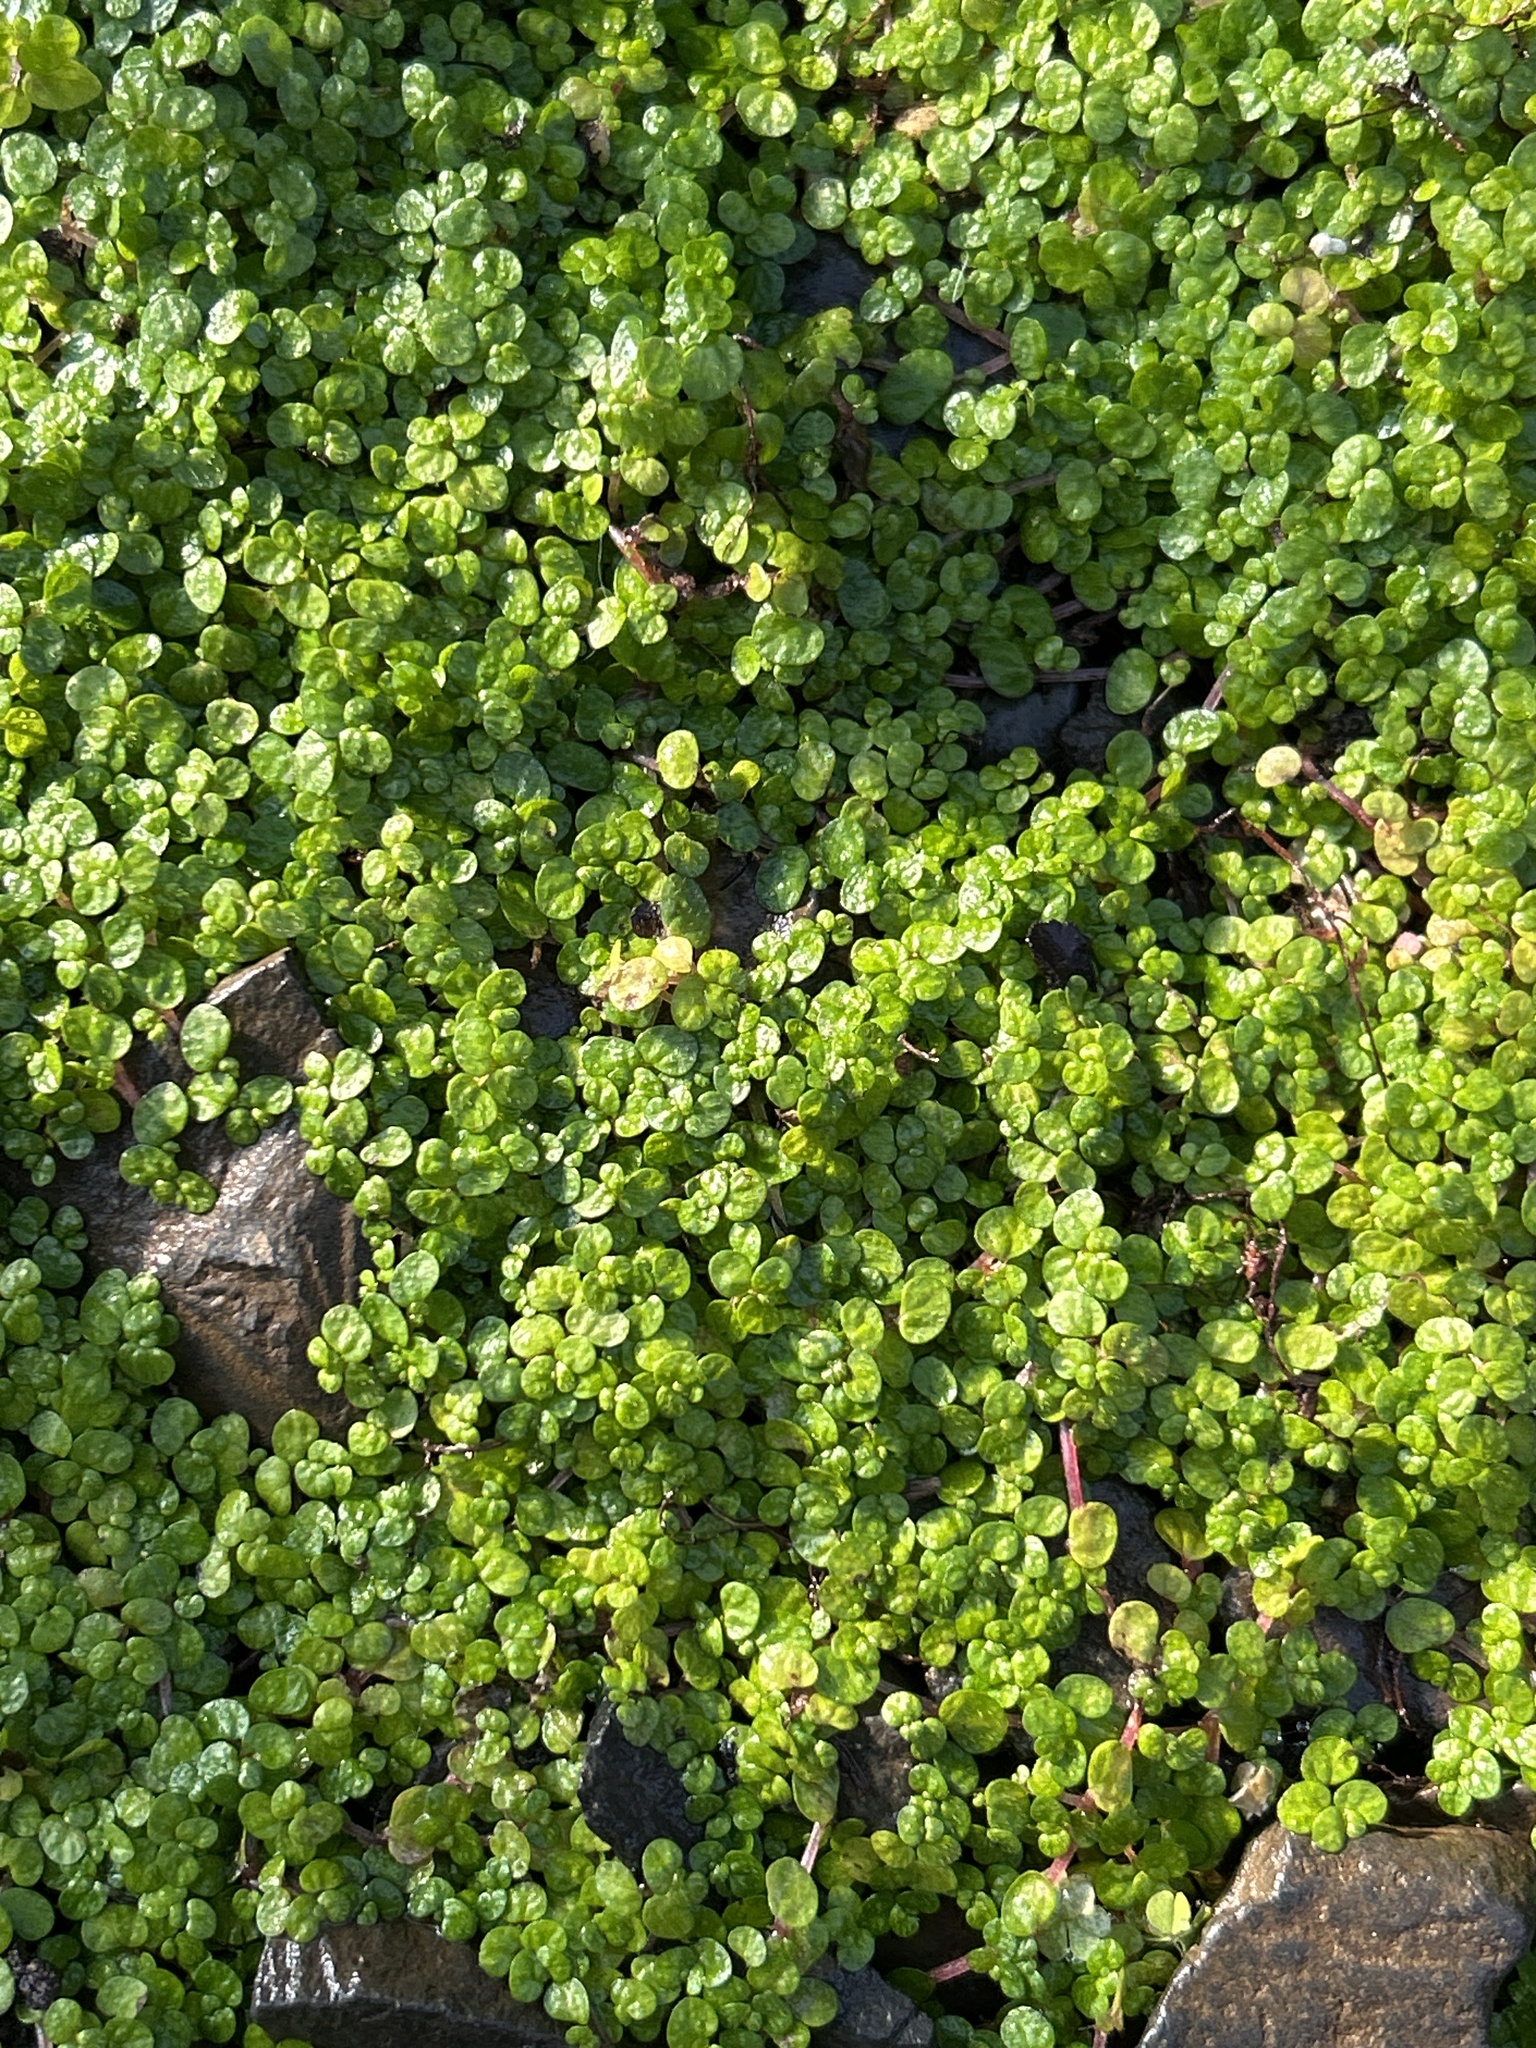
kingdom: Plantae
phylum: Tracheophyta
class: Magnoliopsida
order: Rosales
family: Urticaceae
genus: Soleirolia
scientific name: Soleirolia soleirolii
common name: Mind-your-own-business
